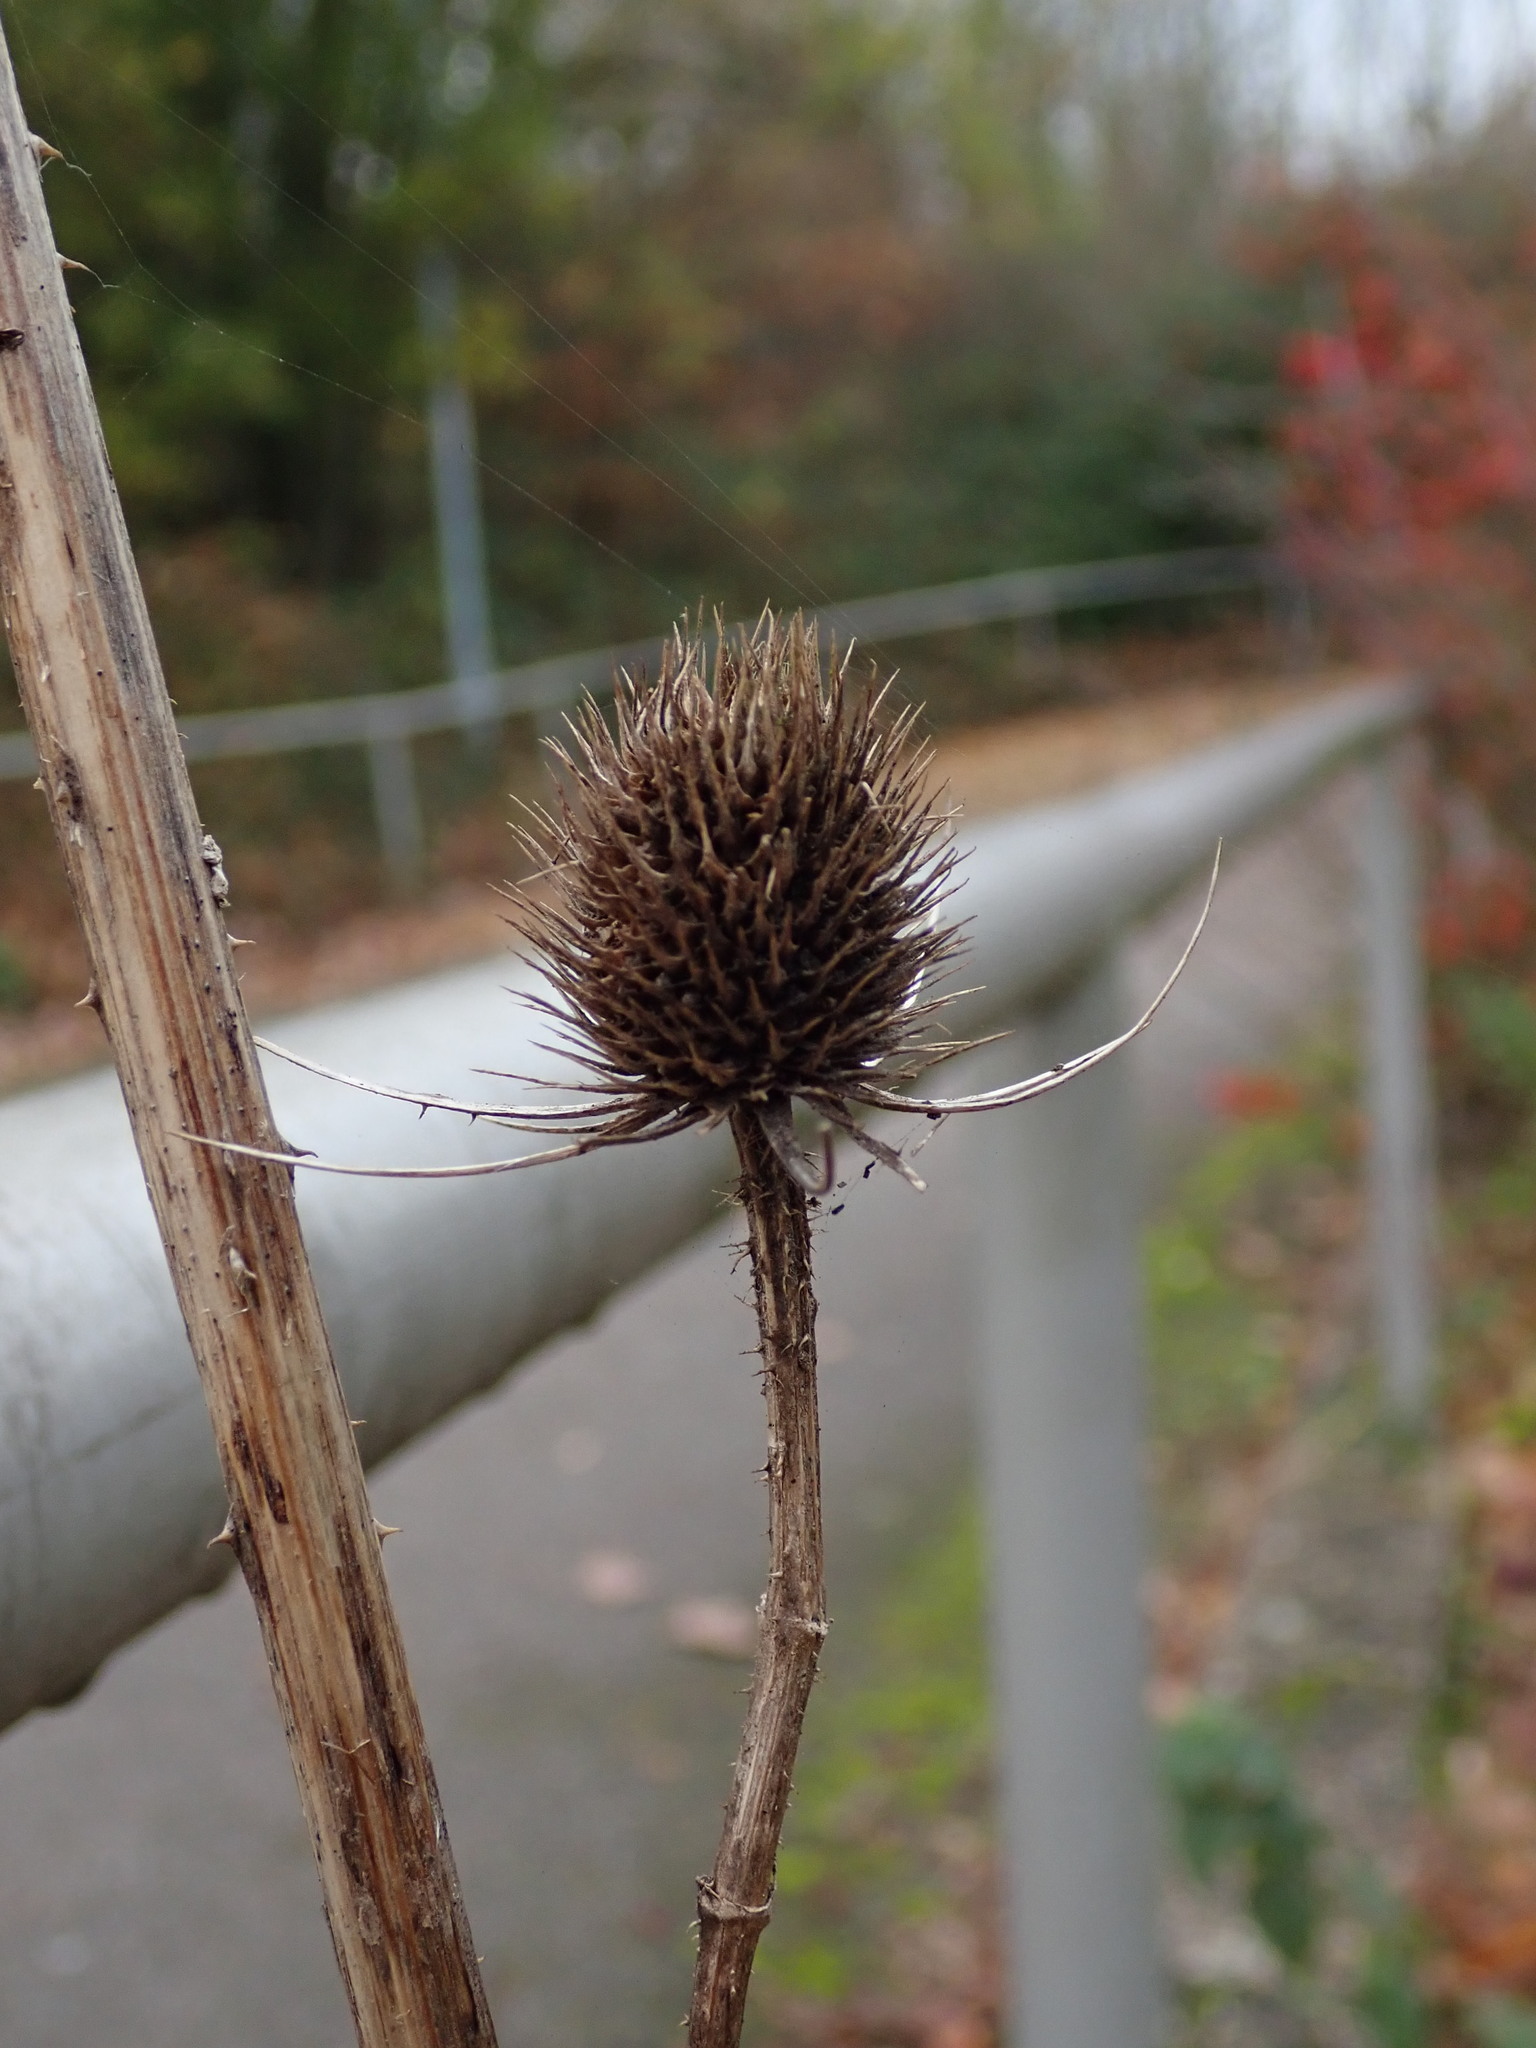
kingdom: Plantae
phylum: Tracheophyta
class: Magnoliopsida
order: Dipsacales
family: Caprifoliaceae
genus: Dipsacus
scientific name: Dipsacus fullonum
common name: Teasel
